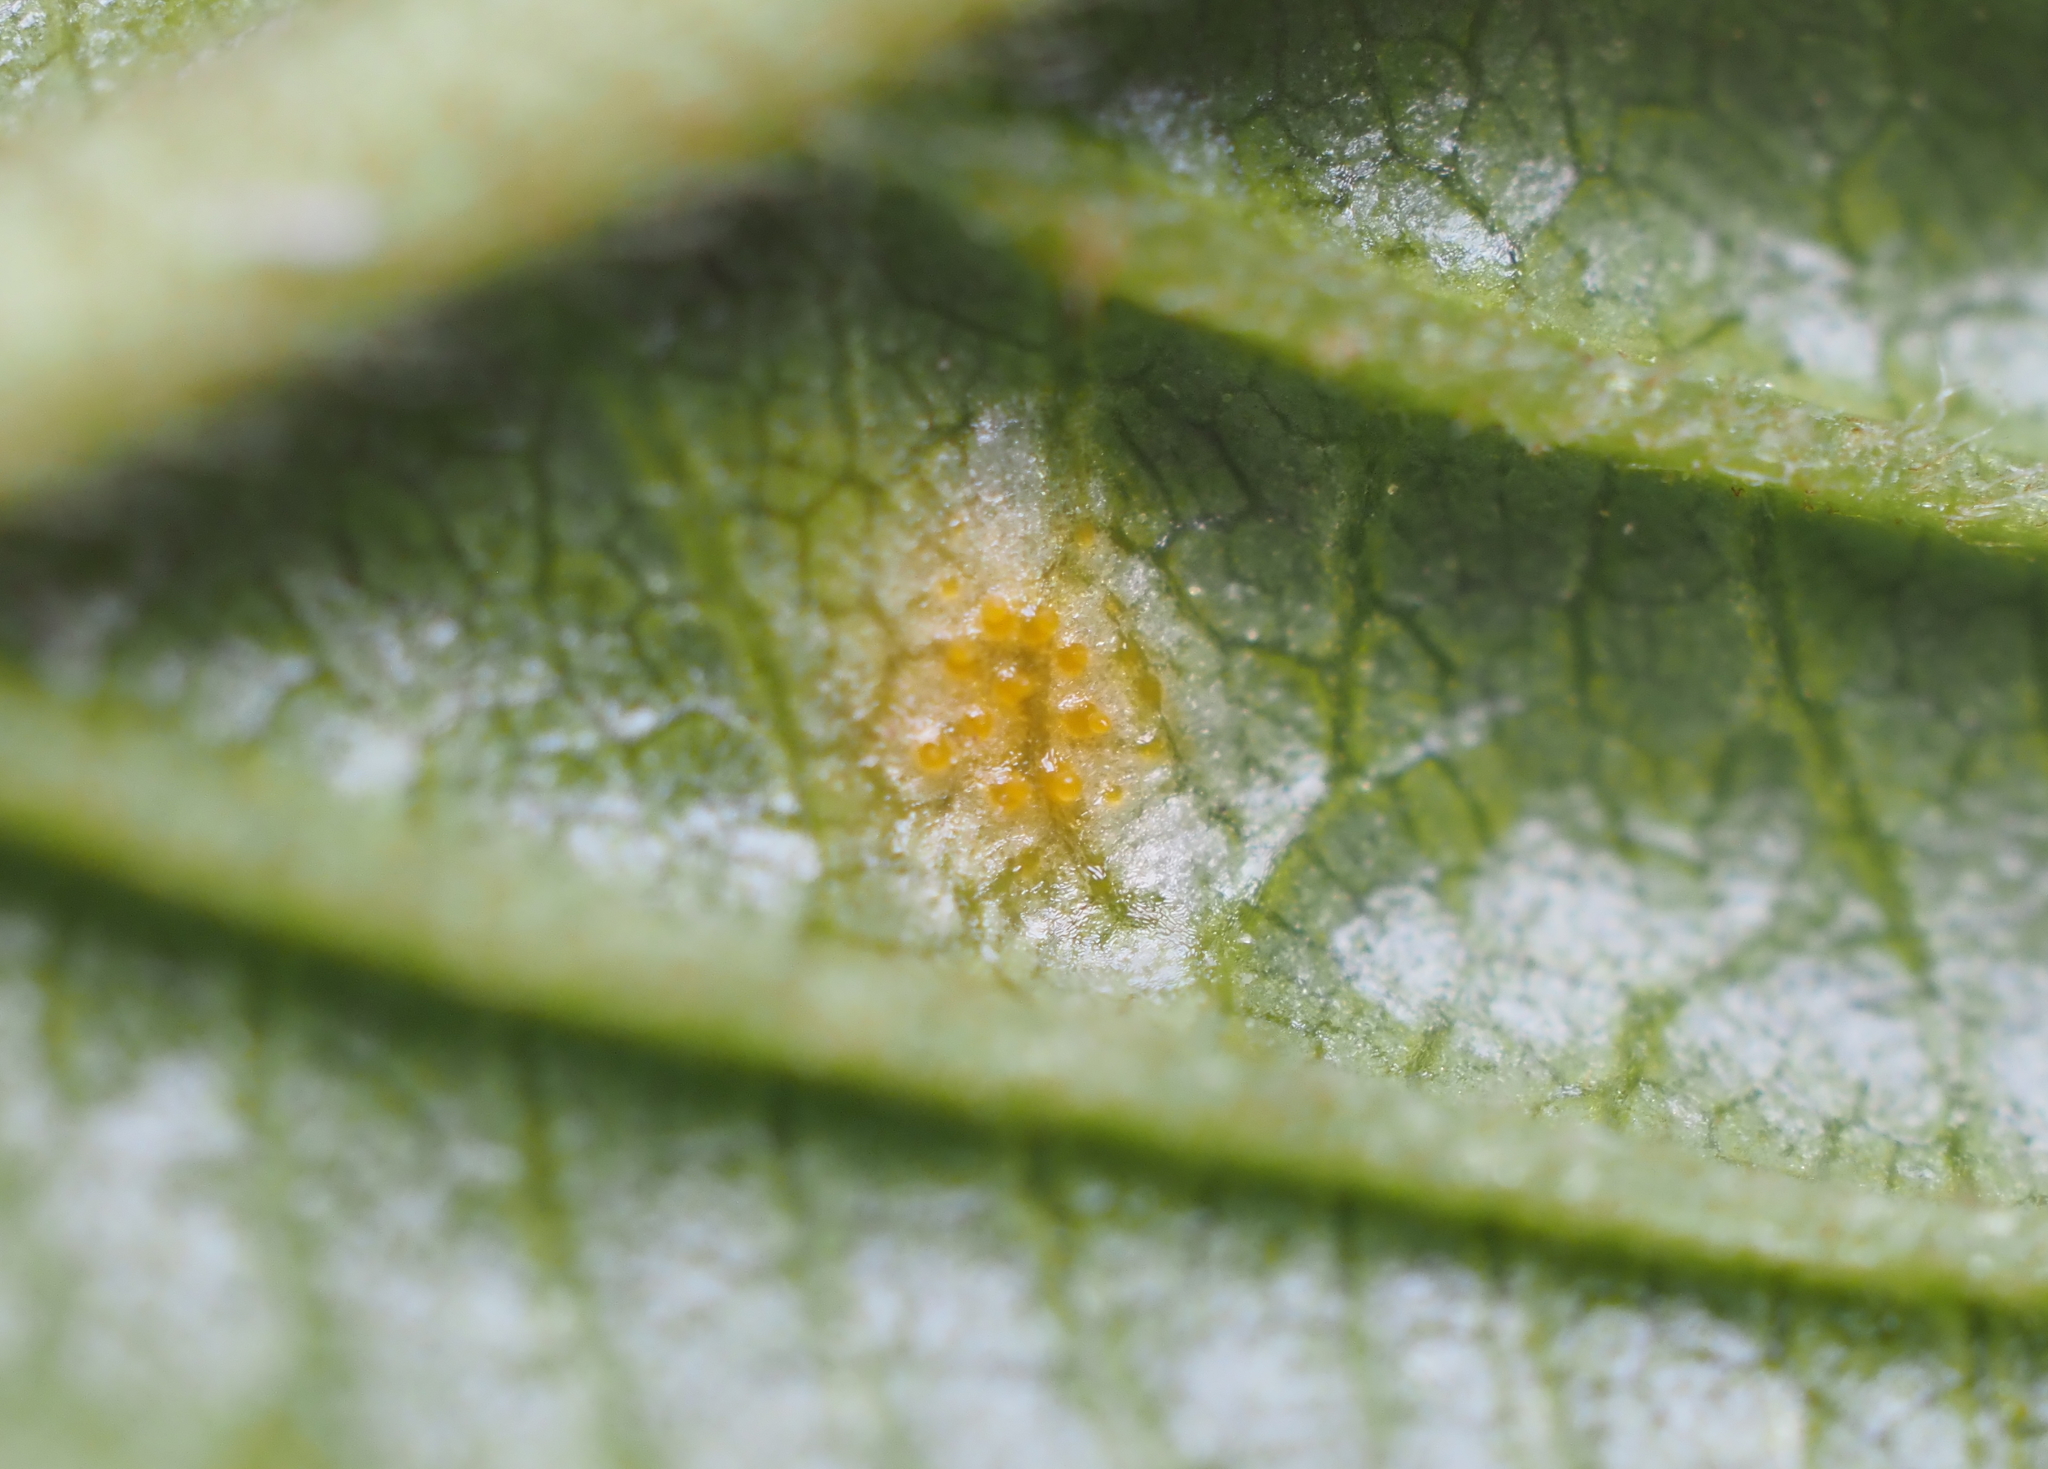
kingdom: Fungi
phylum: Basidiomycota
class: Pucciniomycetes
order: Pucciniales
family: Pucciniaceae
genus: Puccinia
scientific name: Puccinia coronata
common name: Crown rust
